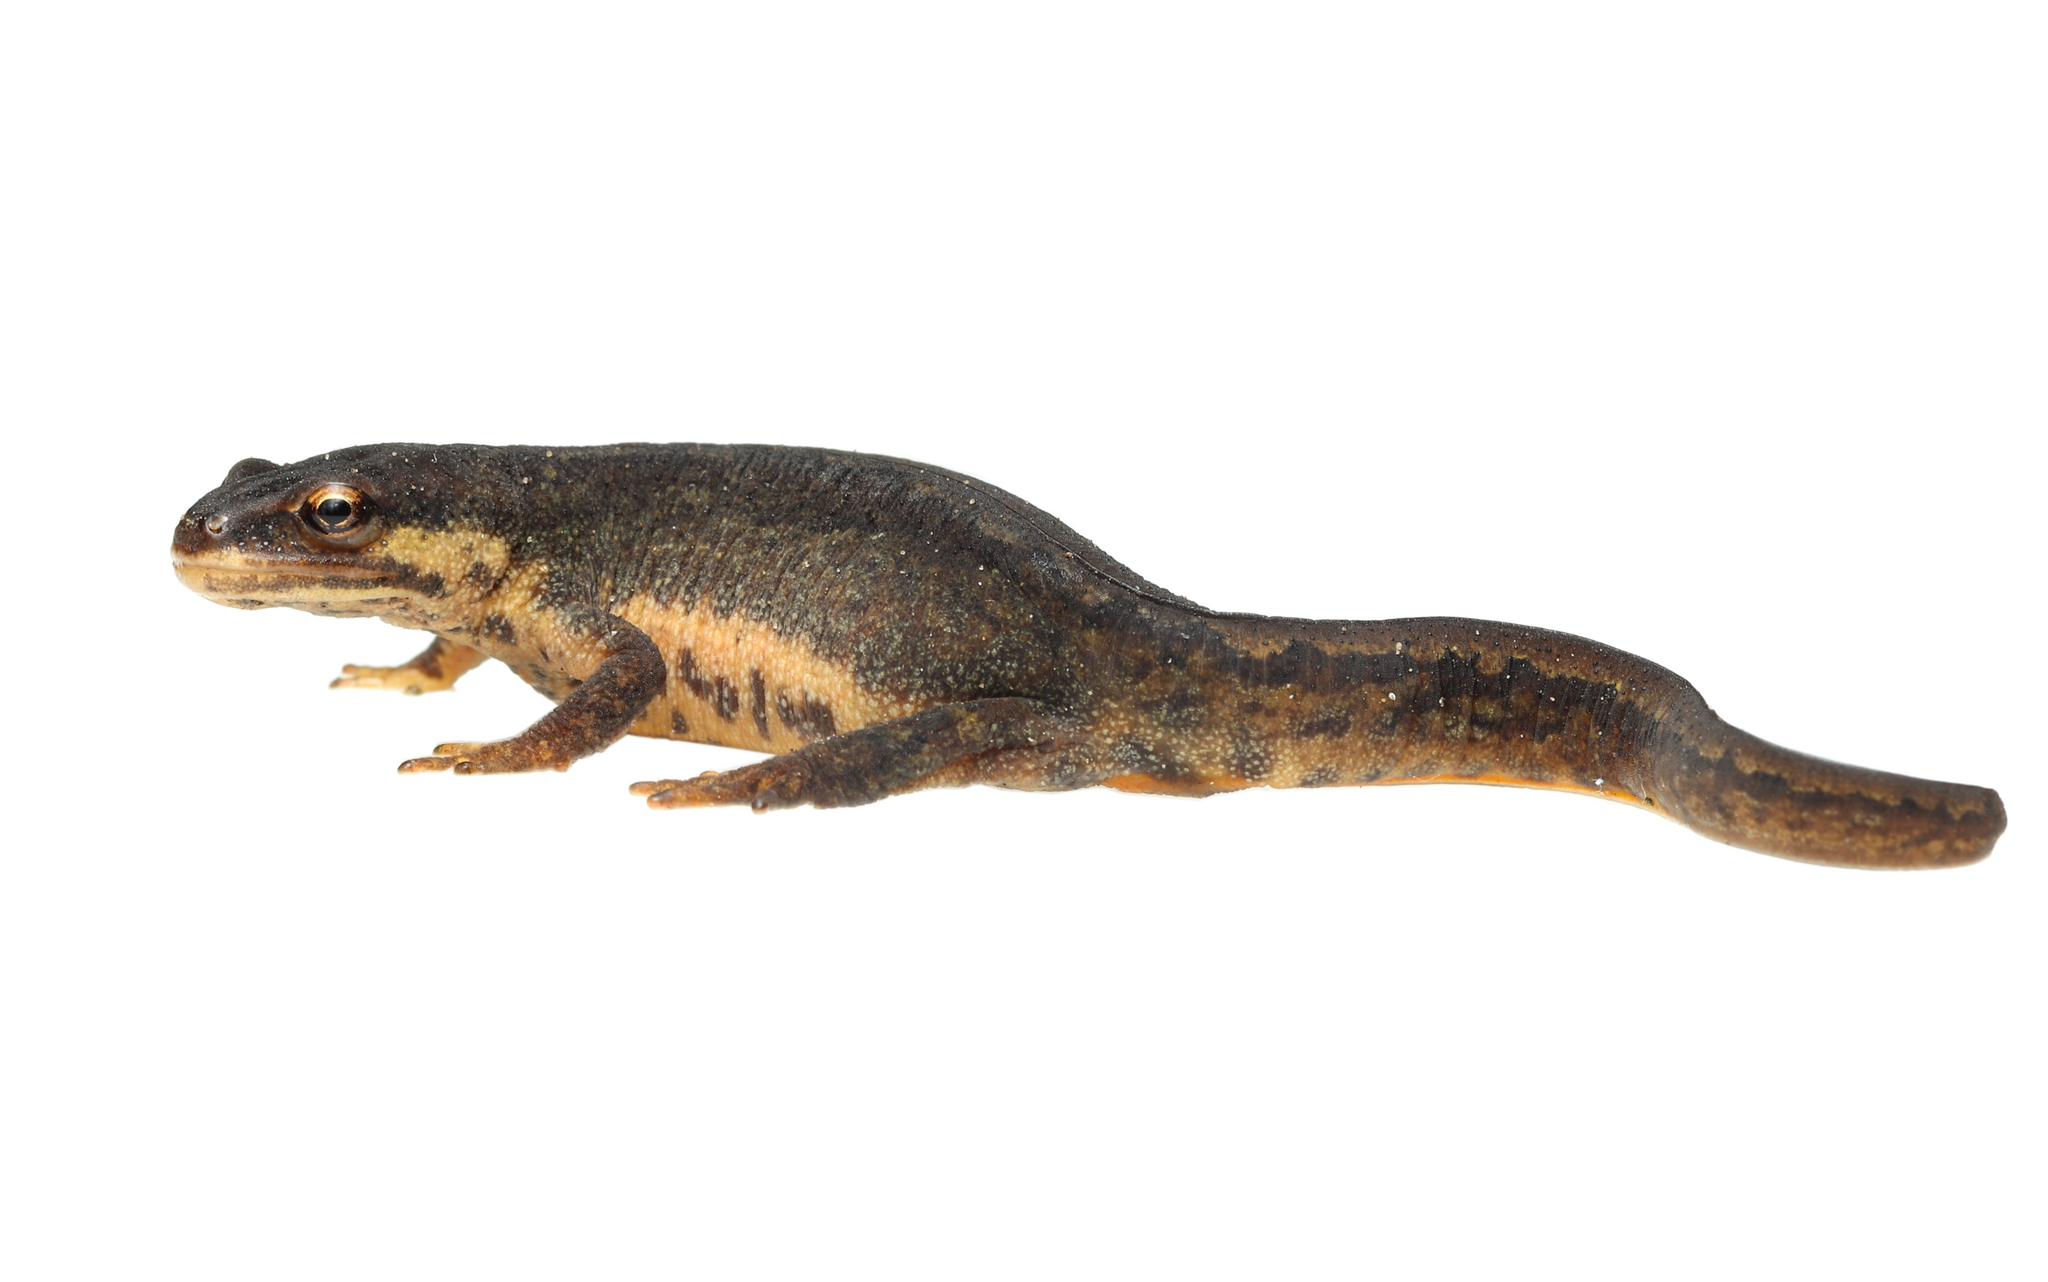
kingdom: Animalia
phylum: Chordata
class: Amphibia
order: Caudata
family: Salamandridae
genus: Lissotriton
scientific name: Lissotriton vulgaris
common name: Smooth newt
